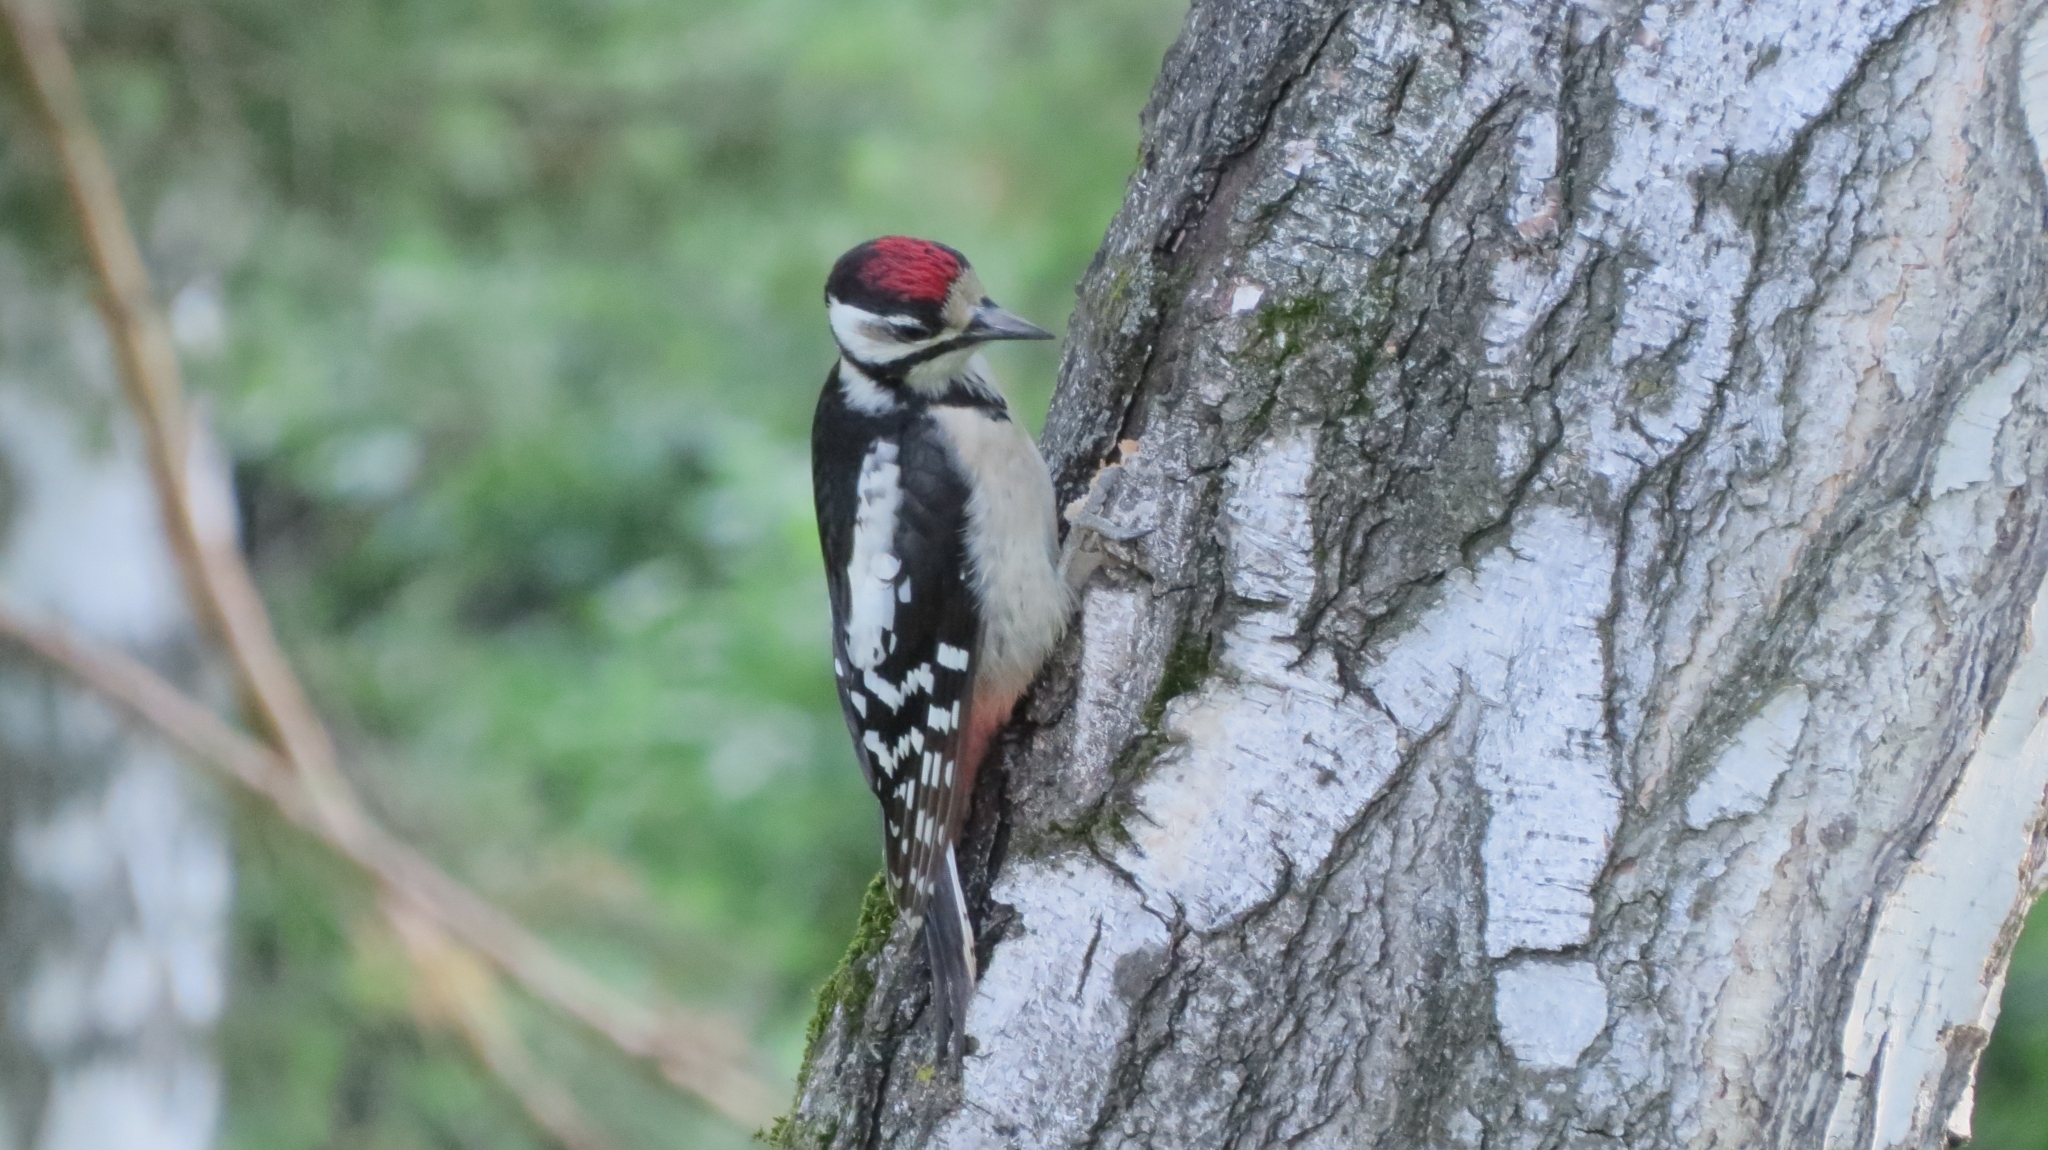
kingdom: Animalia
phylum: Chordata
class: Aves
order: Piciformes
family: Picidae
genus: Dendrocopos
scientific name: Dendrocopos major
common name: Great spotted woodpecker
